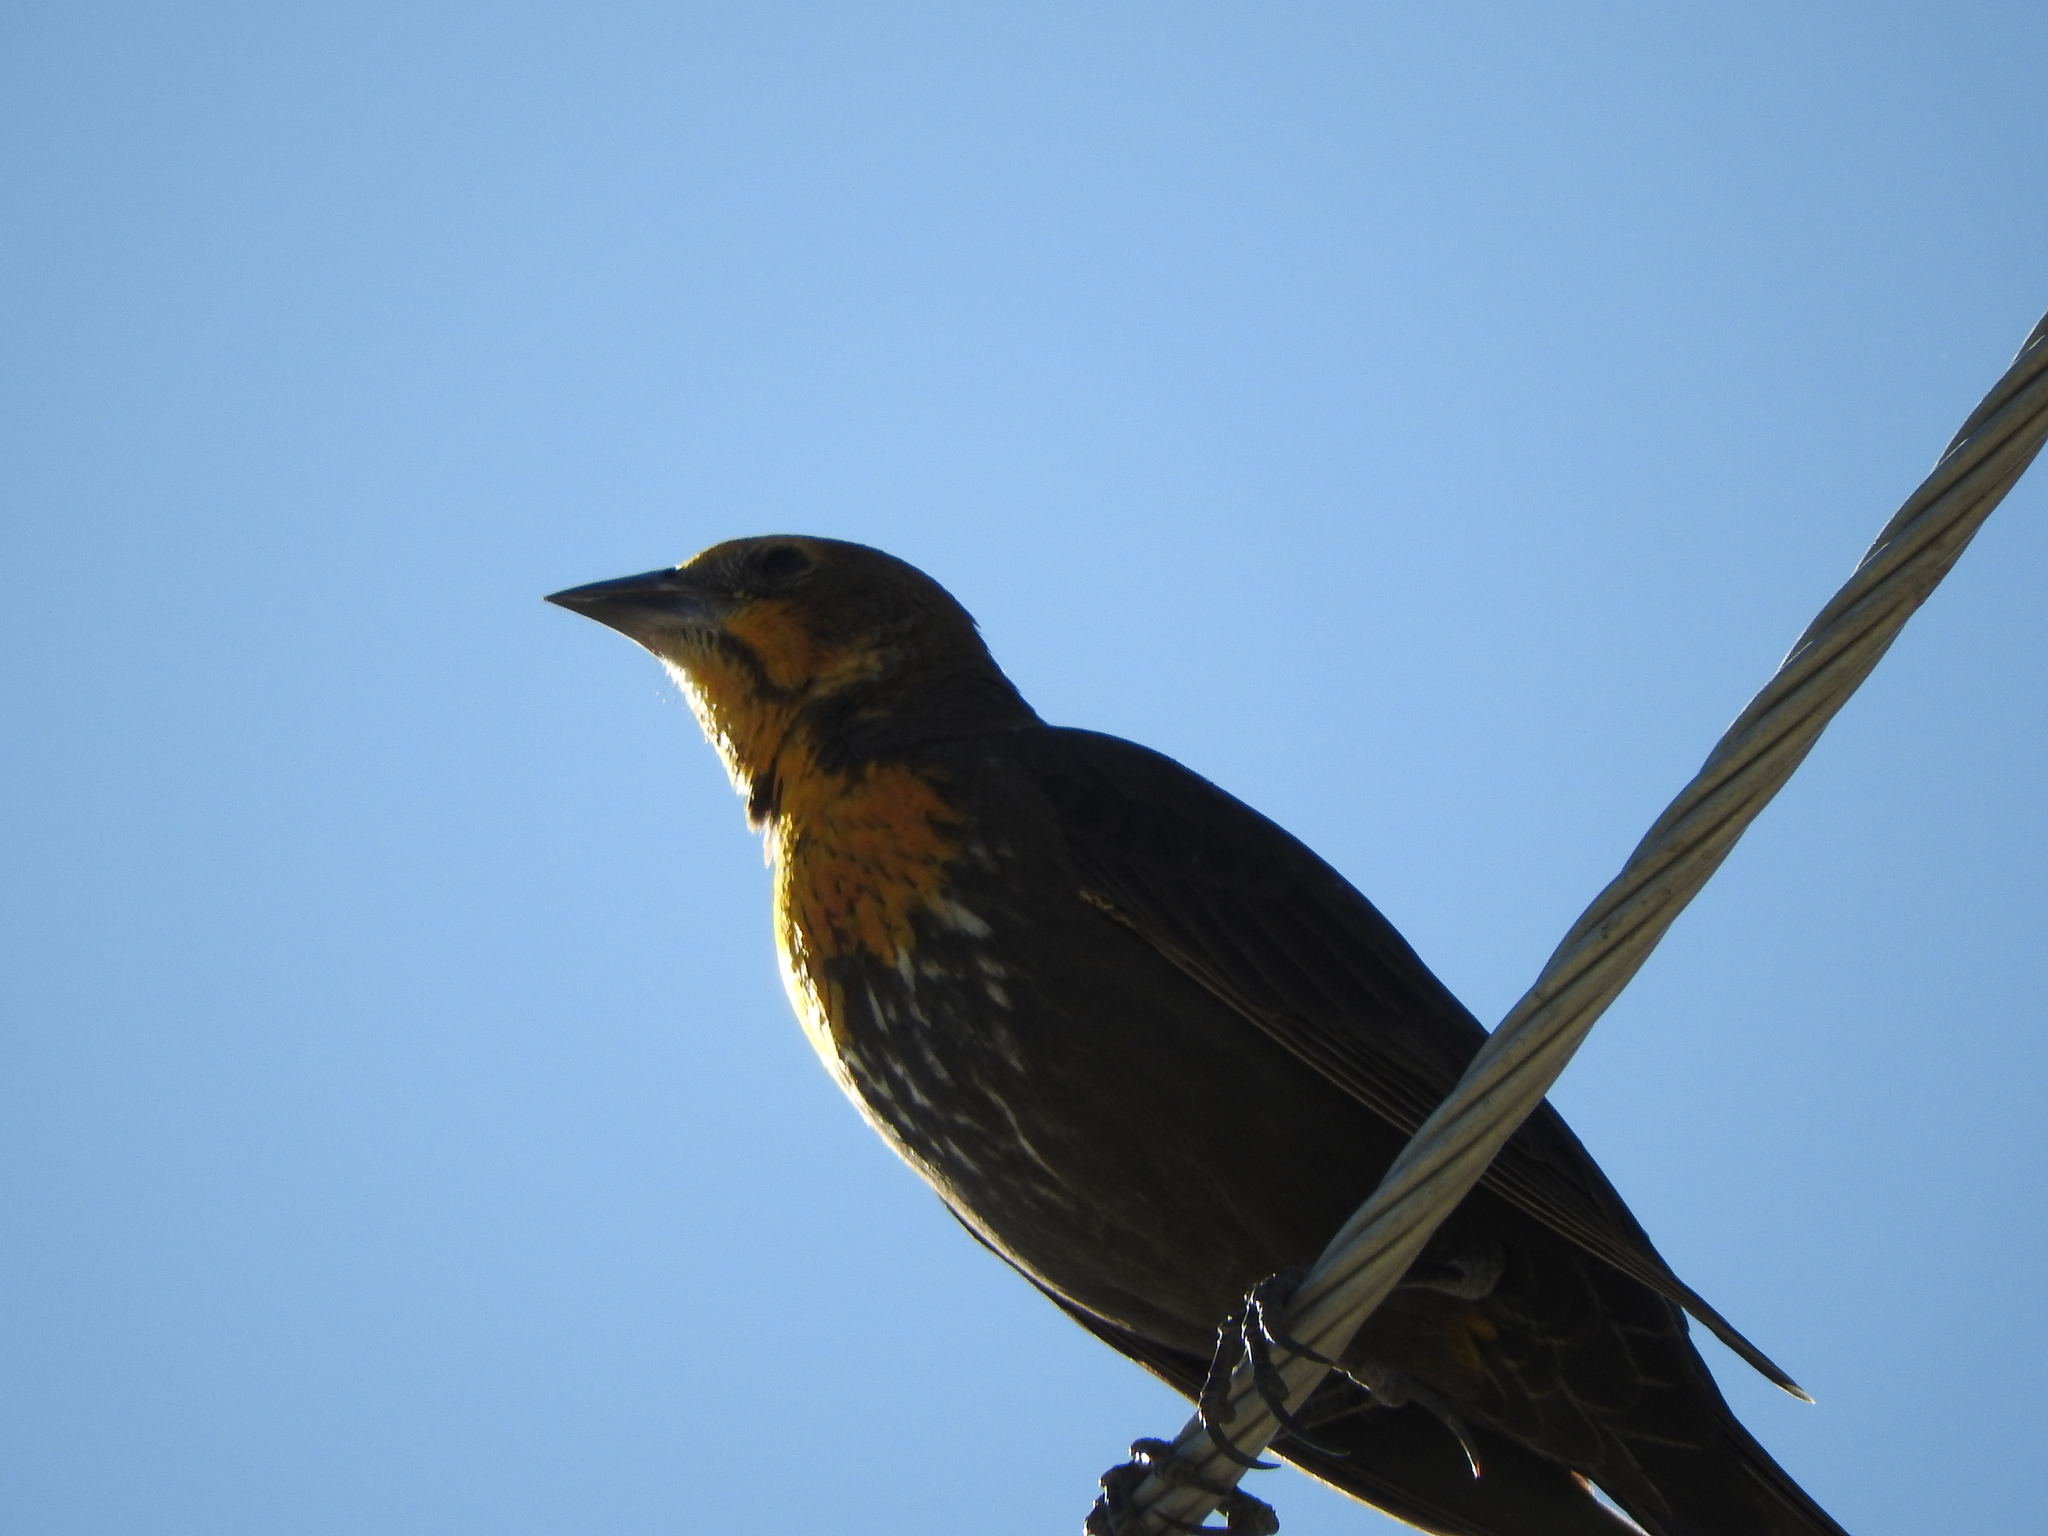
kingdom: Animalia
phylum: Chordata
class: Aves
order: Passeriformes
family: Icteridae
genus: Xanthocephalus
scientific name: Xanthocephalus xanthocephalus
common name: Yellow-headed blackbird
